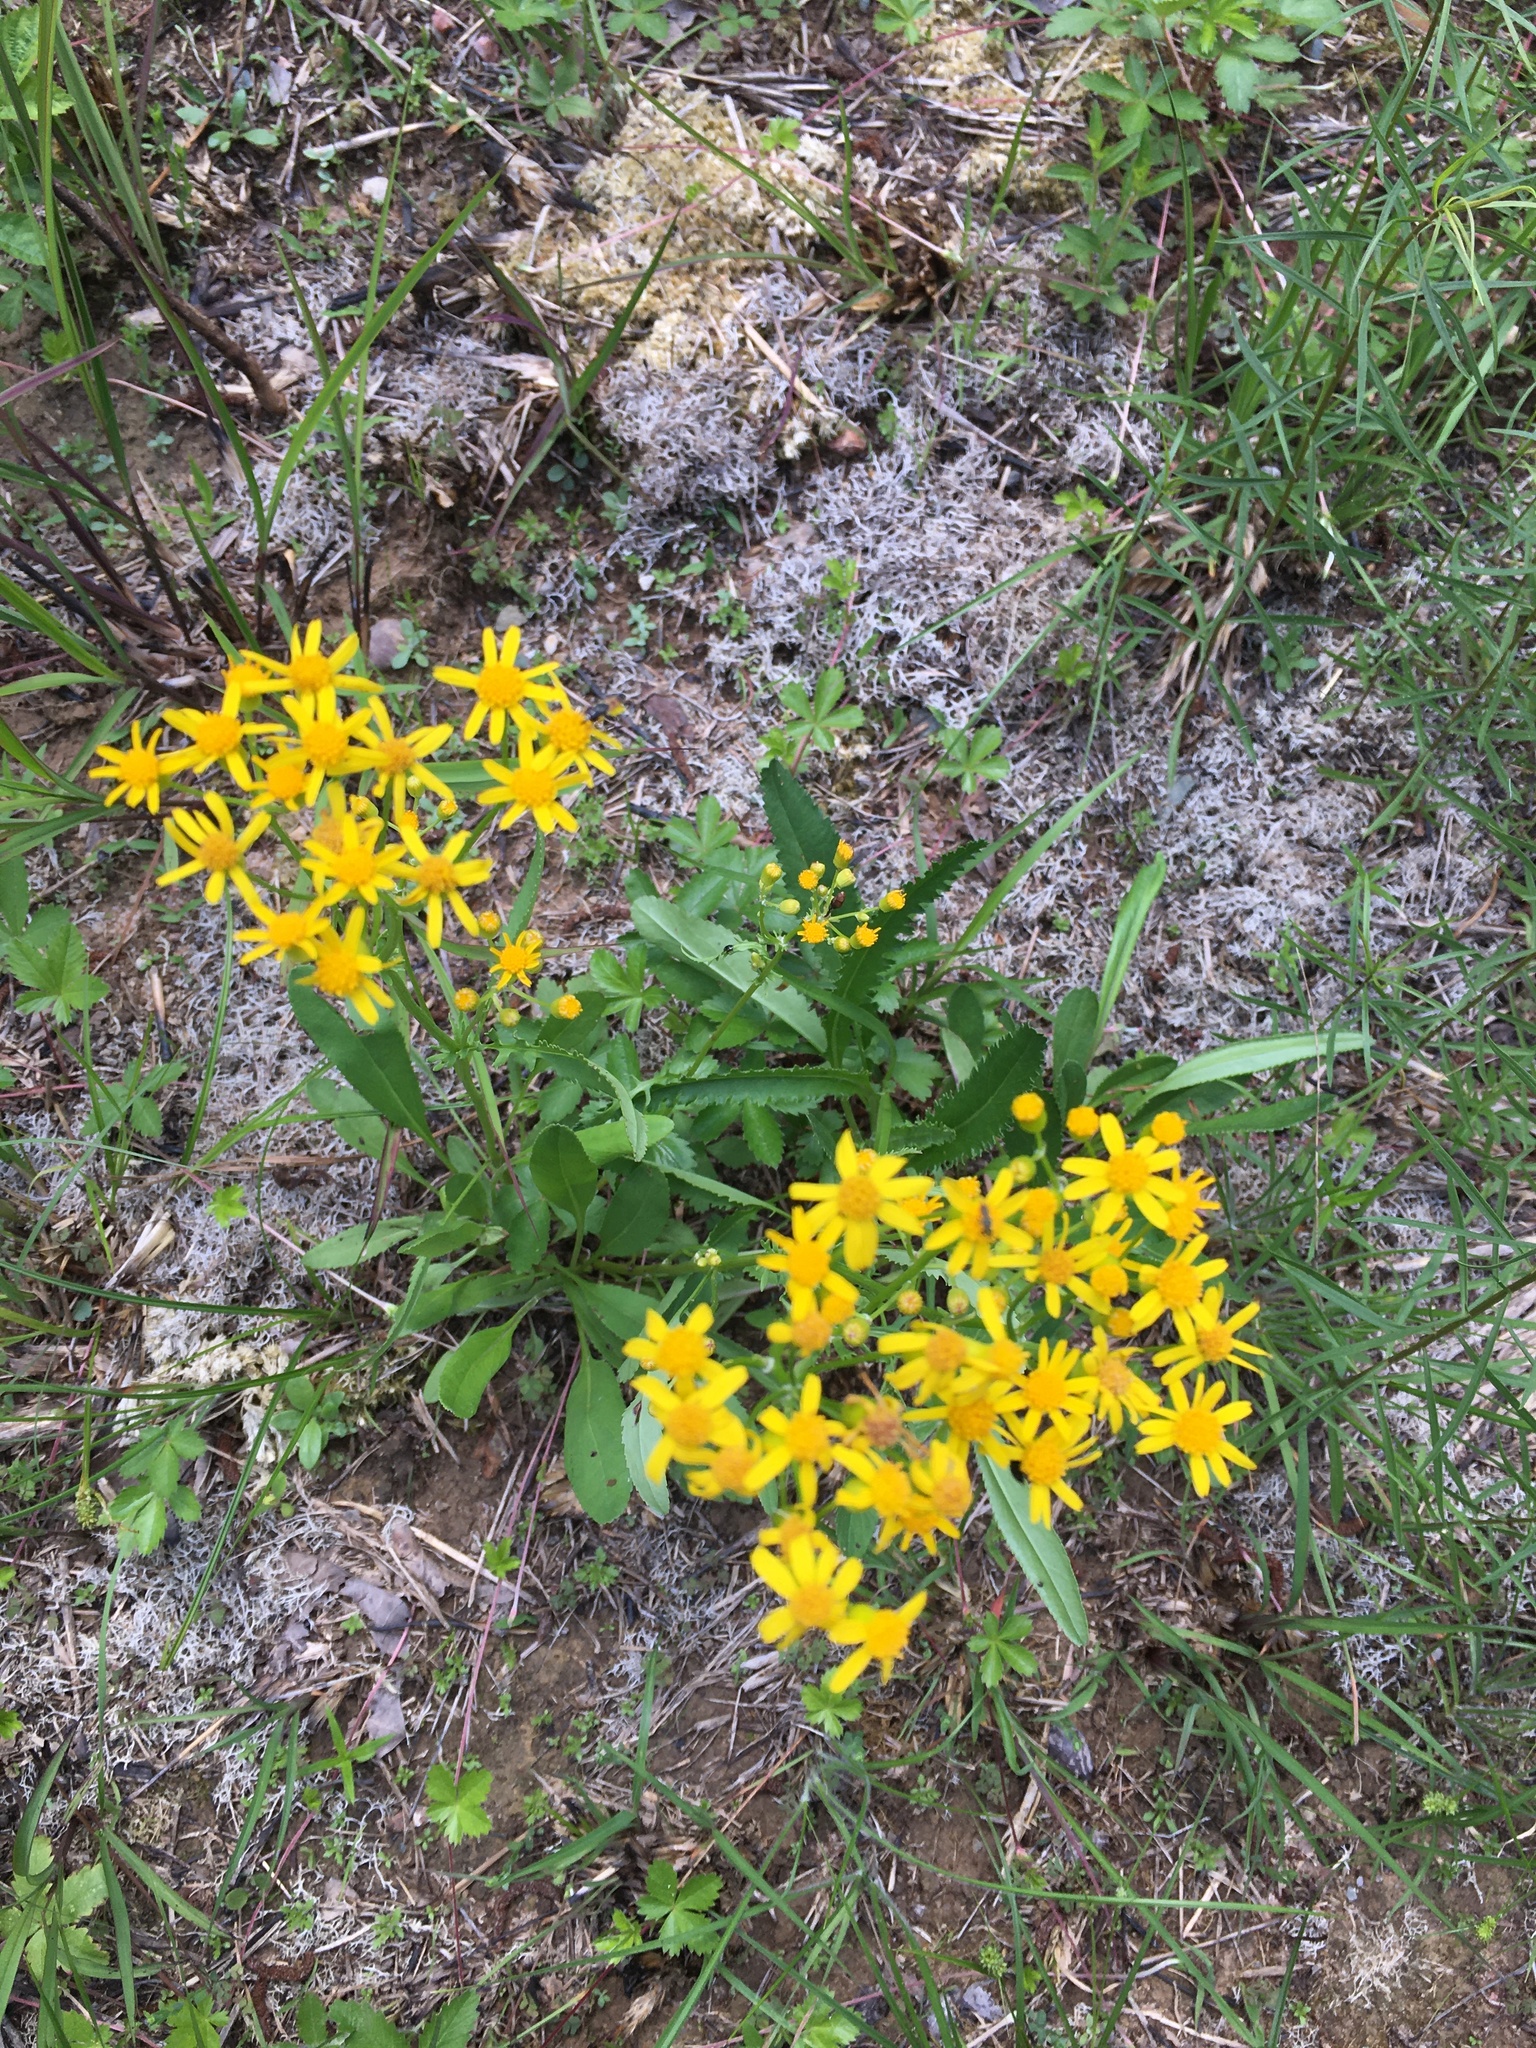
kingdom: Plantae
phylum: Tracheophyta
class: Magnoliopsida
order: Asterales
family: Asteraceae
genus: Packera
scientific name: Packera anonyma
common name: Small ragwort
